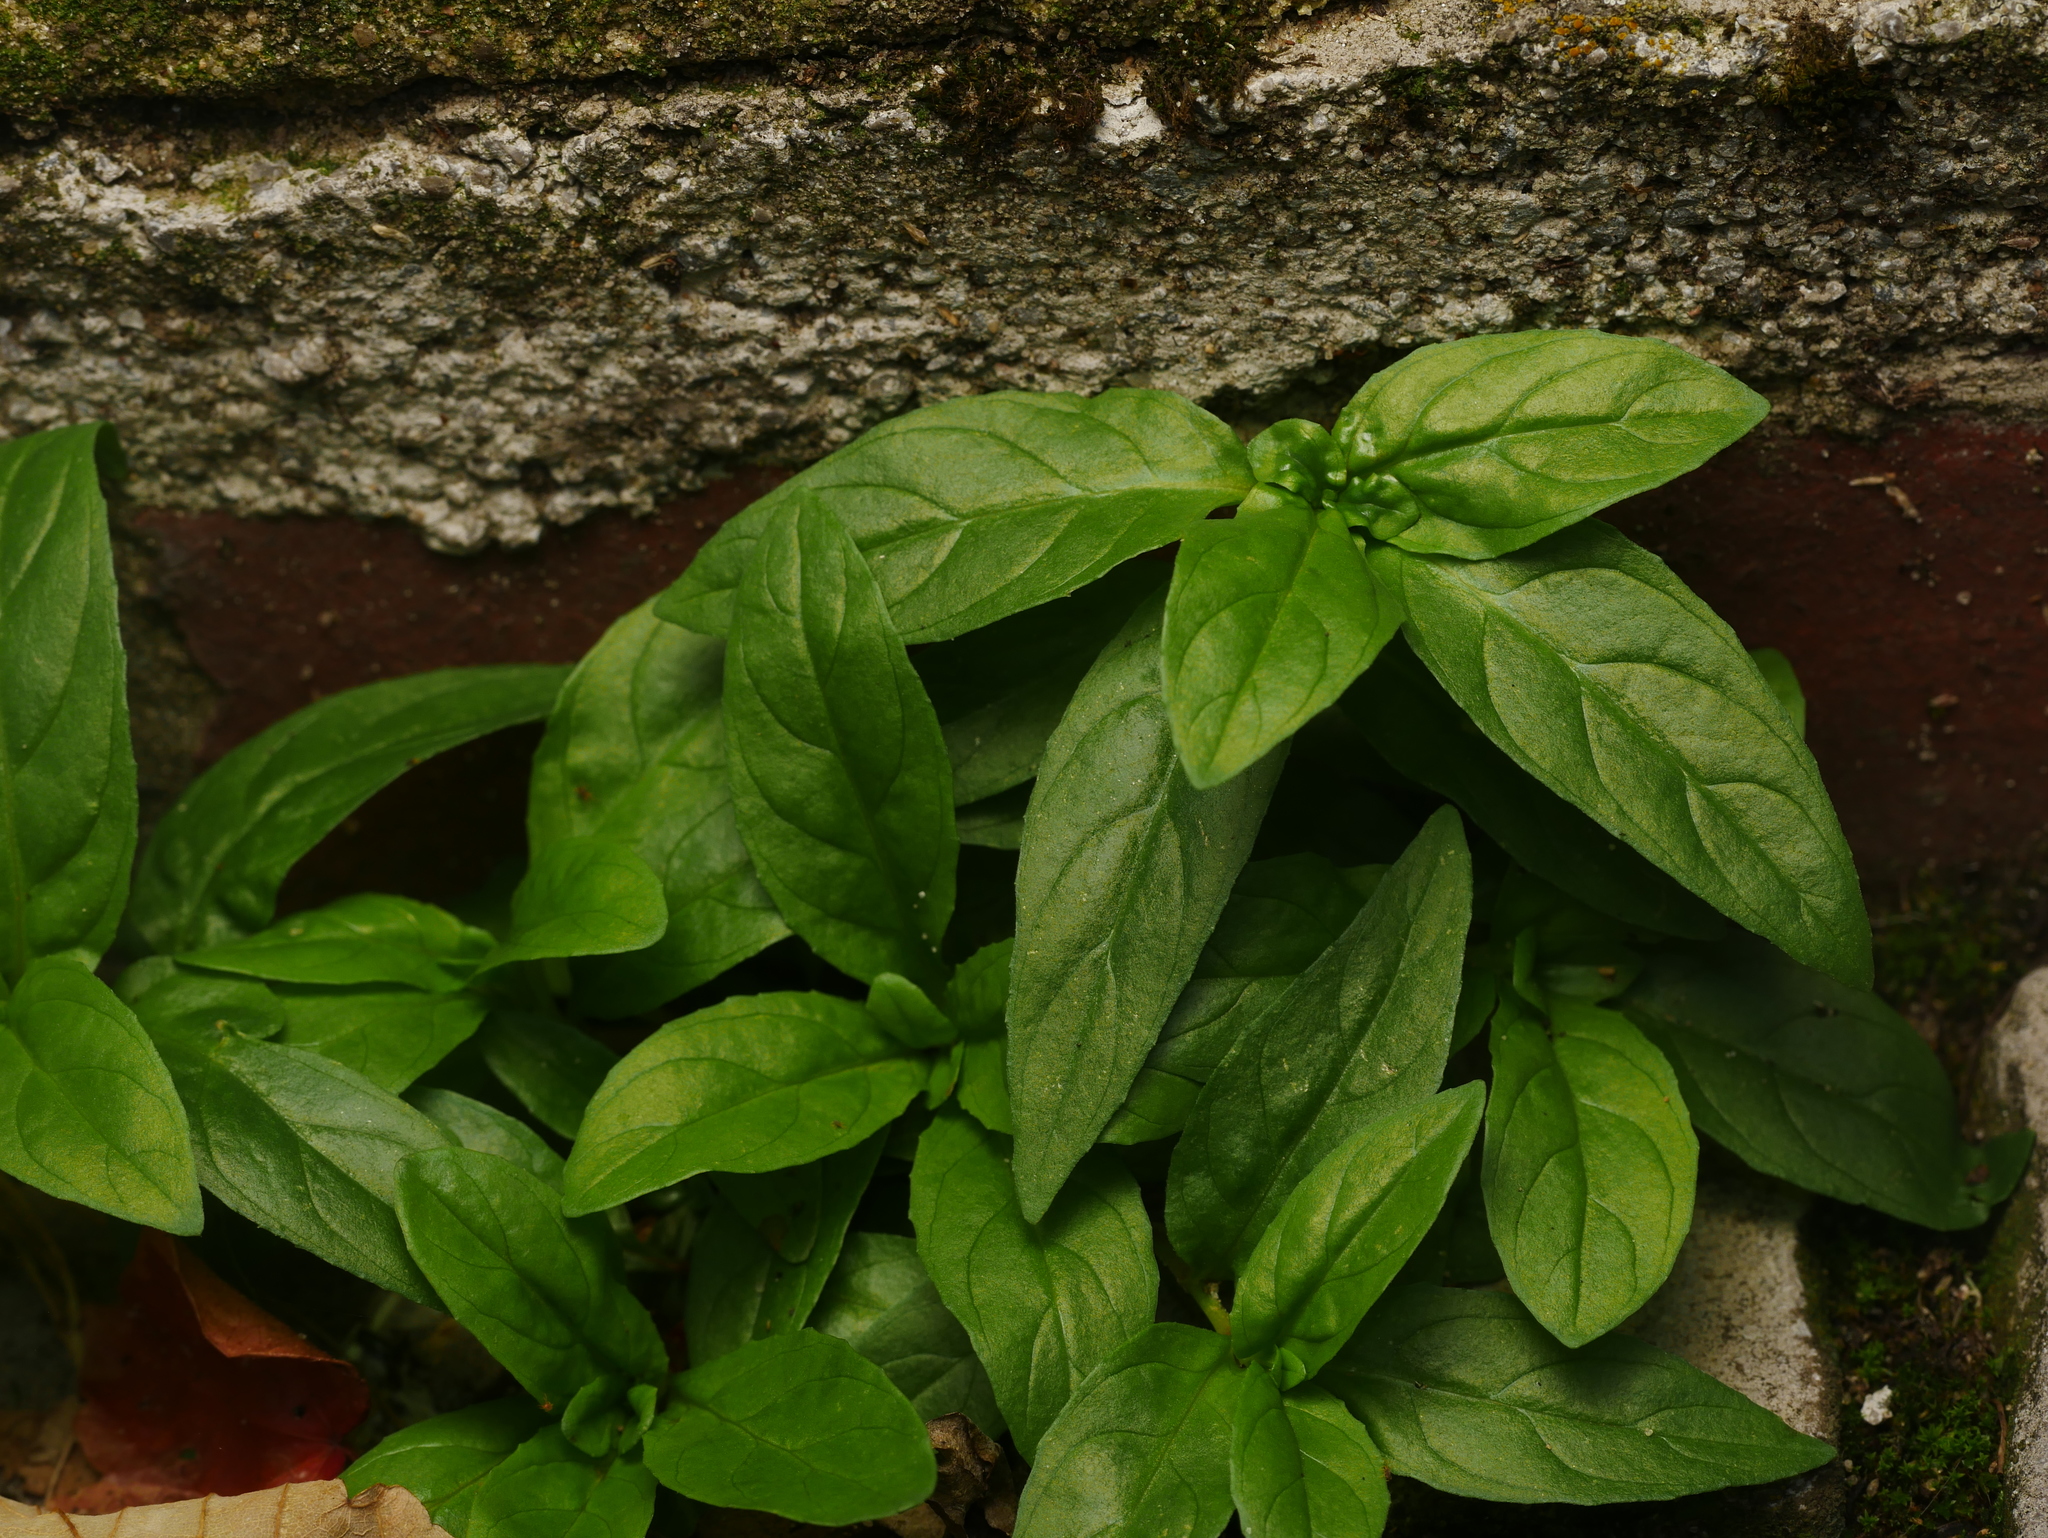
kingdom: Plantae
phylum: Tracheophyta
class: Magnoliopsida
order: Lamiales
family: Lamiaceae
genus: Ocimum
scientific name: Ocimum basilicum
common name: Sweet basil
